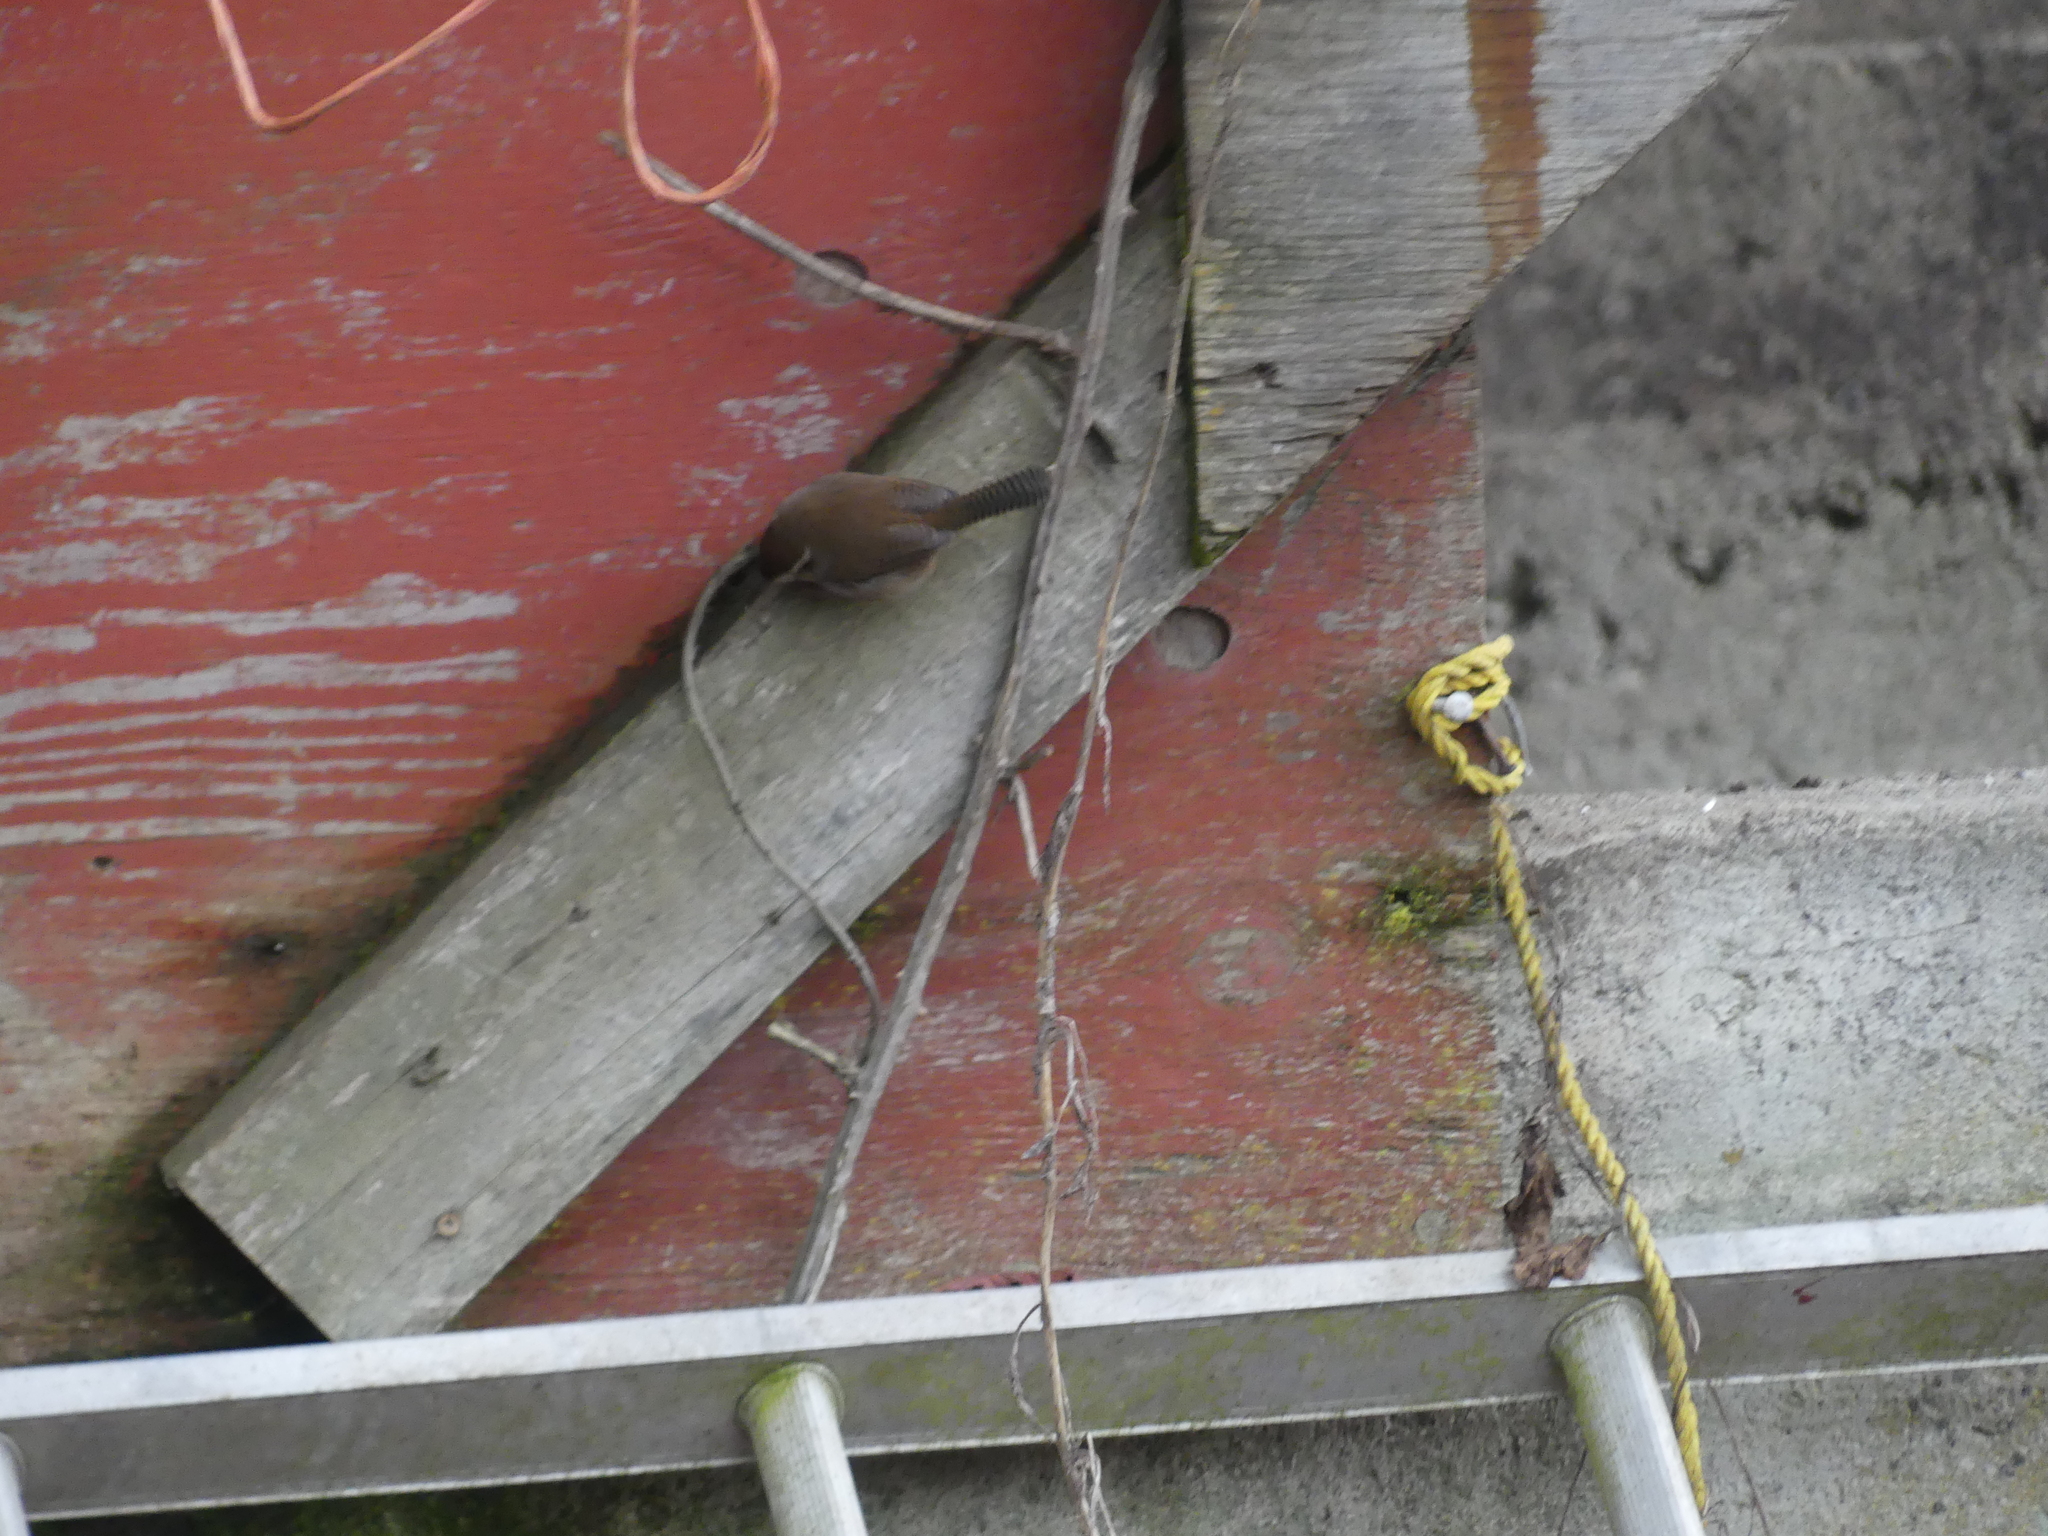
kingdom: Animalia
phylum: Chordata
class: Aves
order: Passeriformes
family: Troglodytidae
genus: Thryomanes
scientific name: Thryomanes bewickii
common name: Bewick's wren
